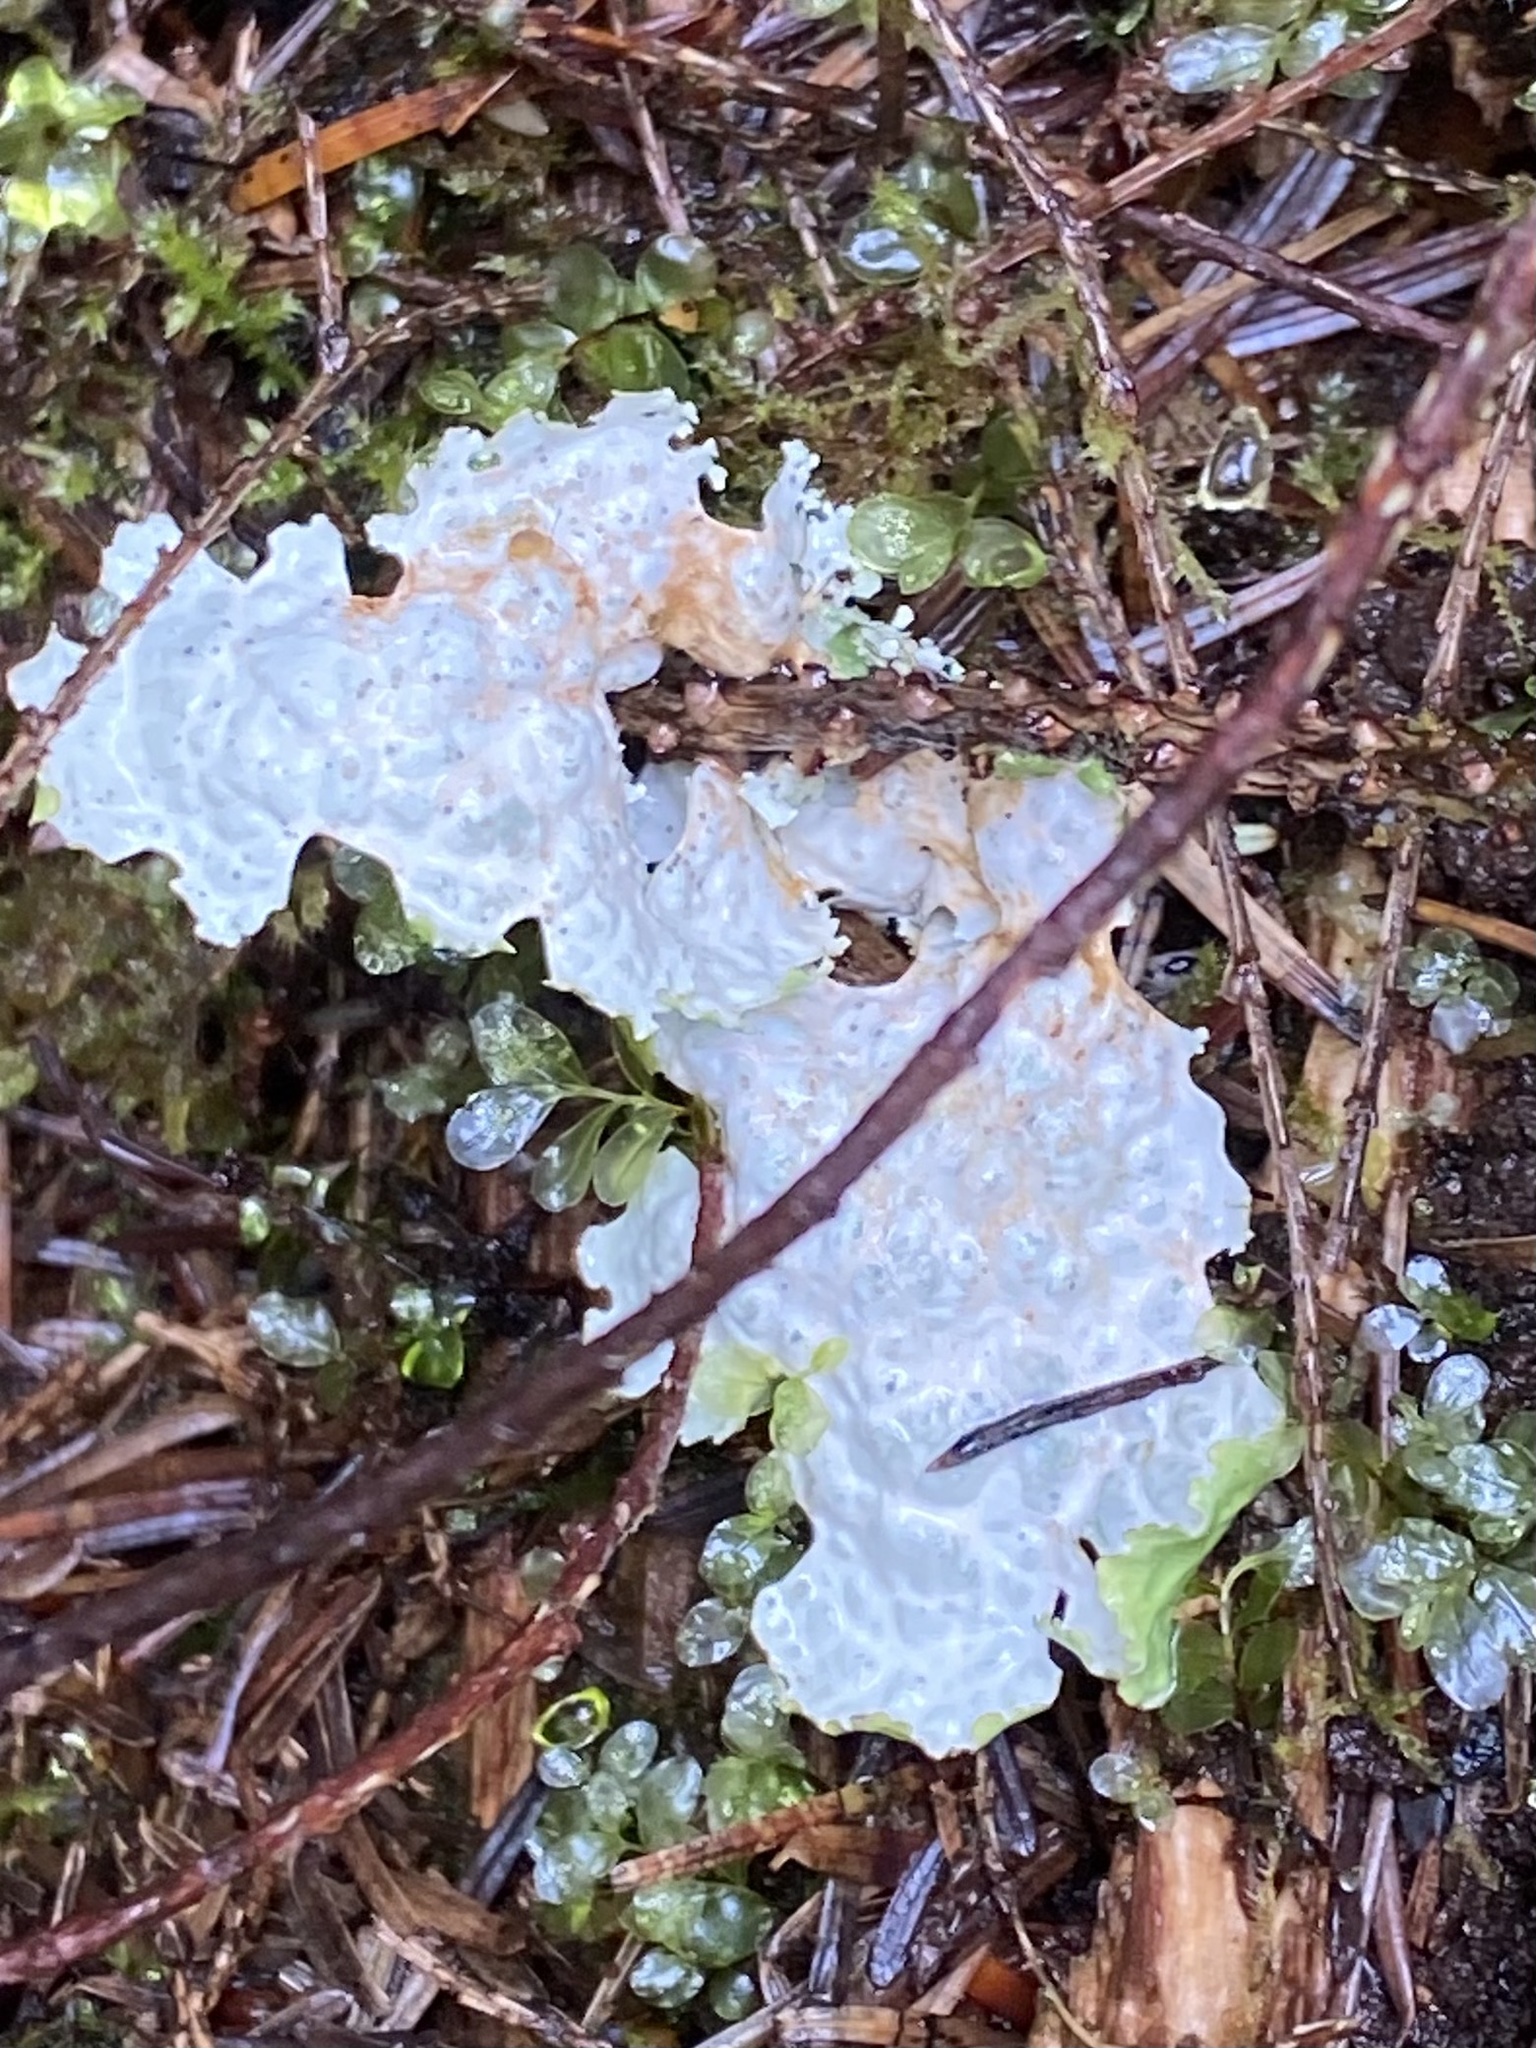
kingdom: Fungi
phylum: Ascomycota
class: Lecanoromycetes
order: Peltigerales
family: Lobariaceae
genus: Lobaria
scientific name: Lobaria oregana
